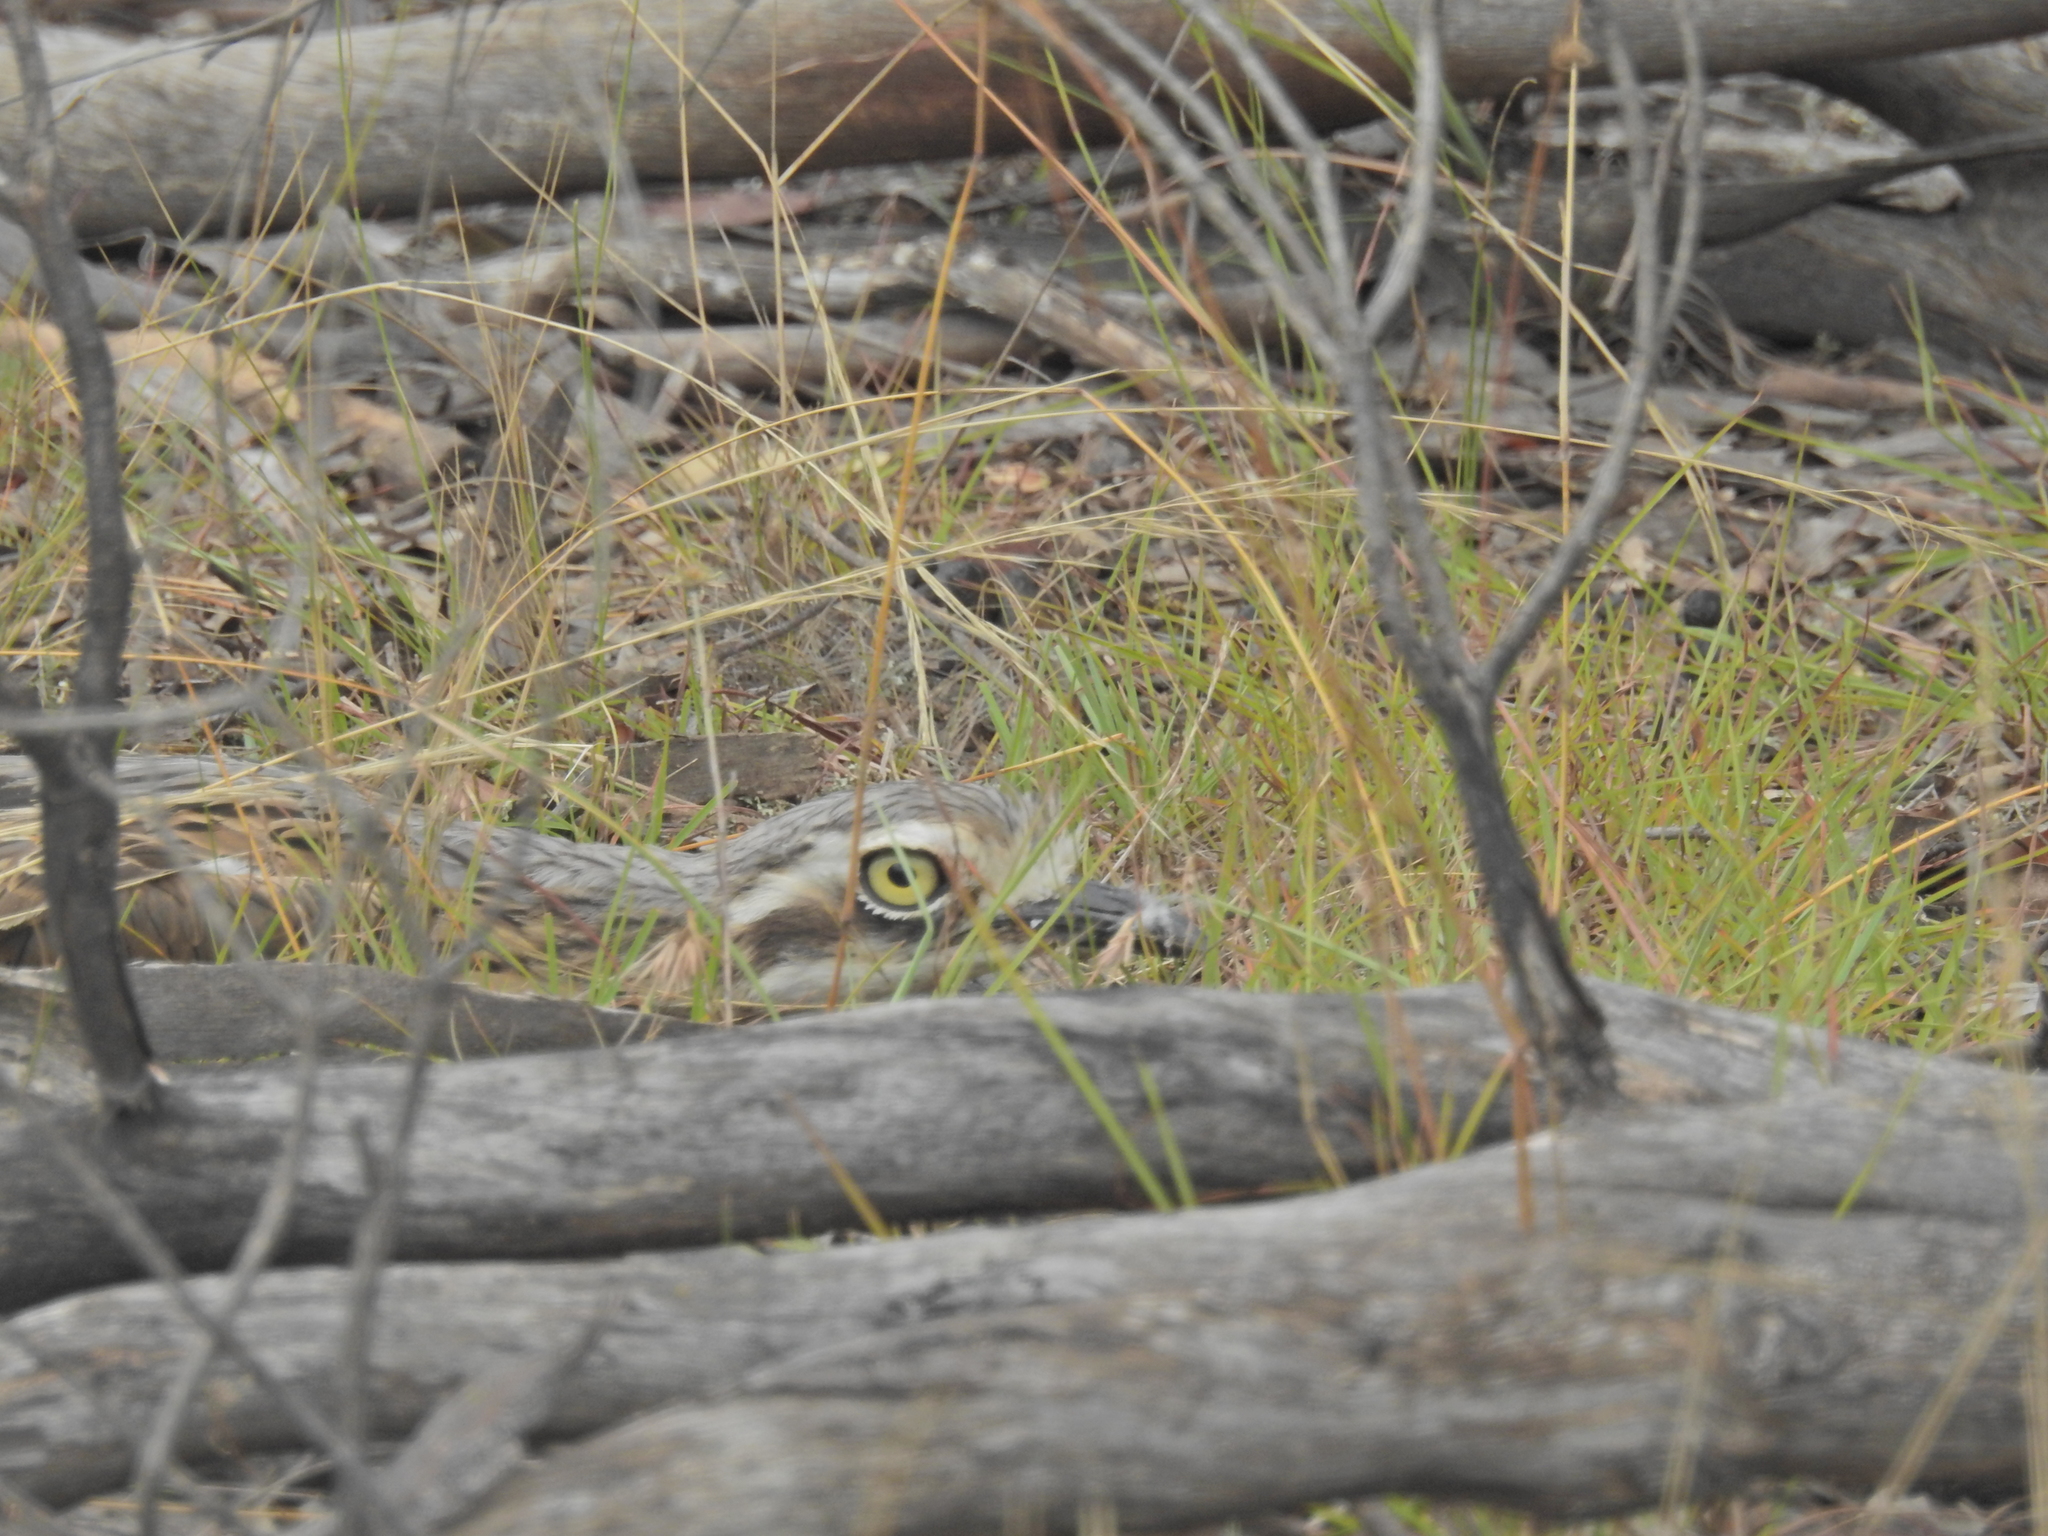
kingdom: Animalia
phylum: Chordata
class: Aves
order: Charadriiformes
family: Burhinidae
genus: Burhinus
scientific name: Burhinus grallarius
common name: Bush stone-curlew
